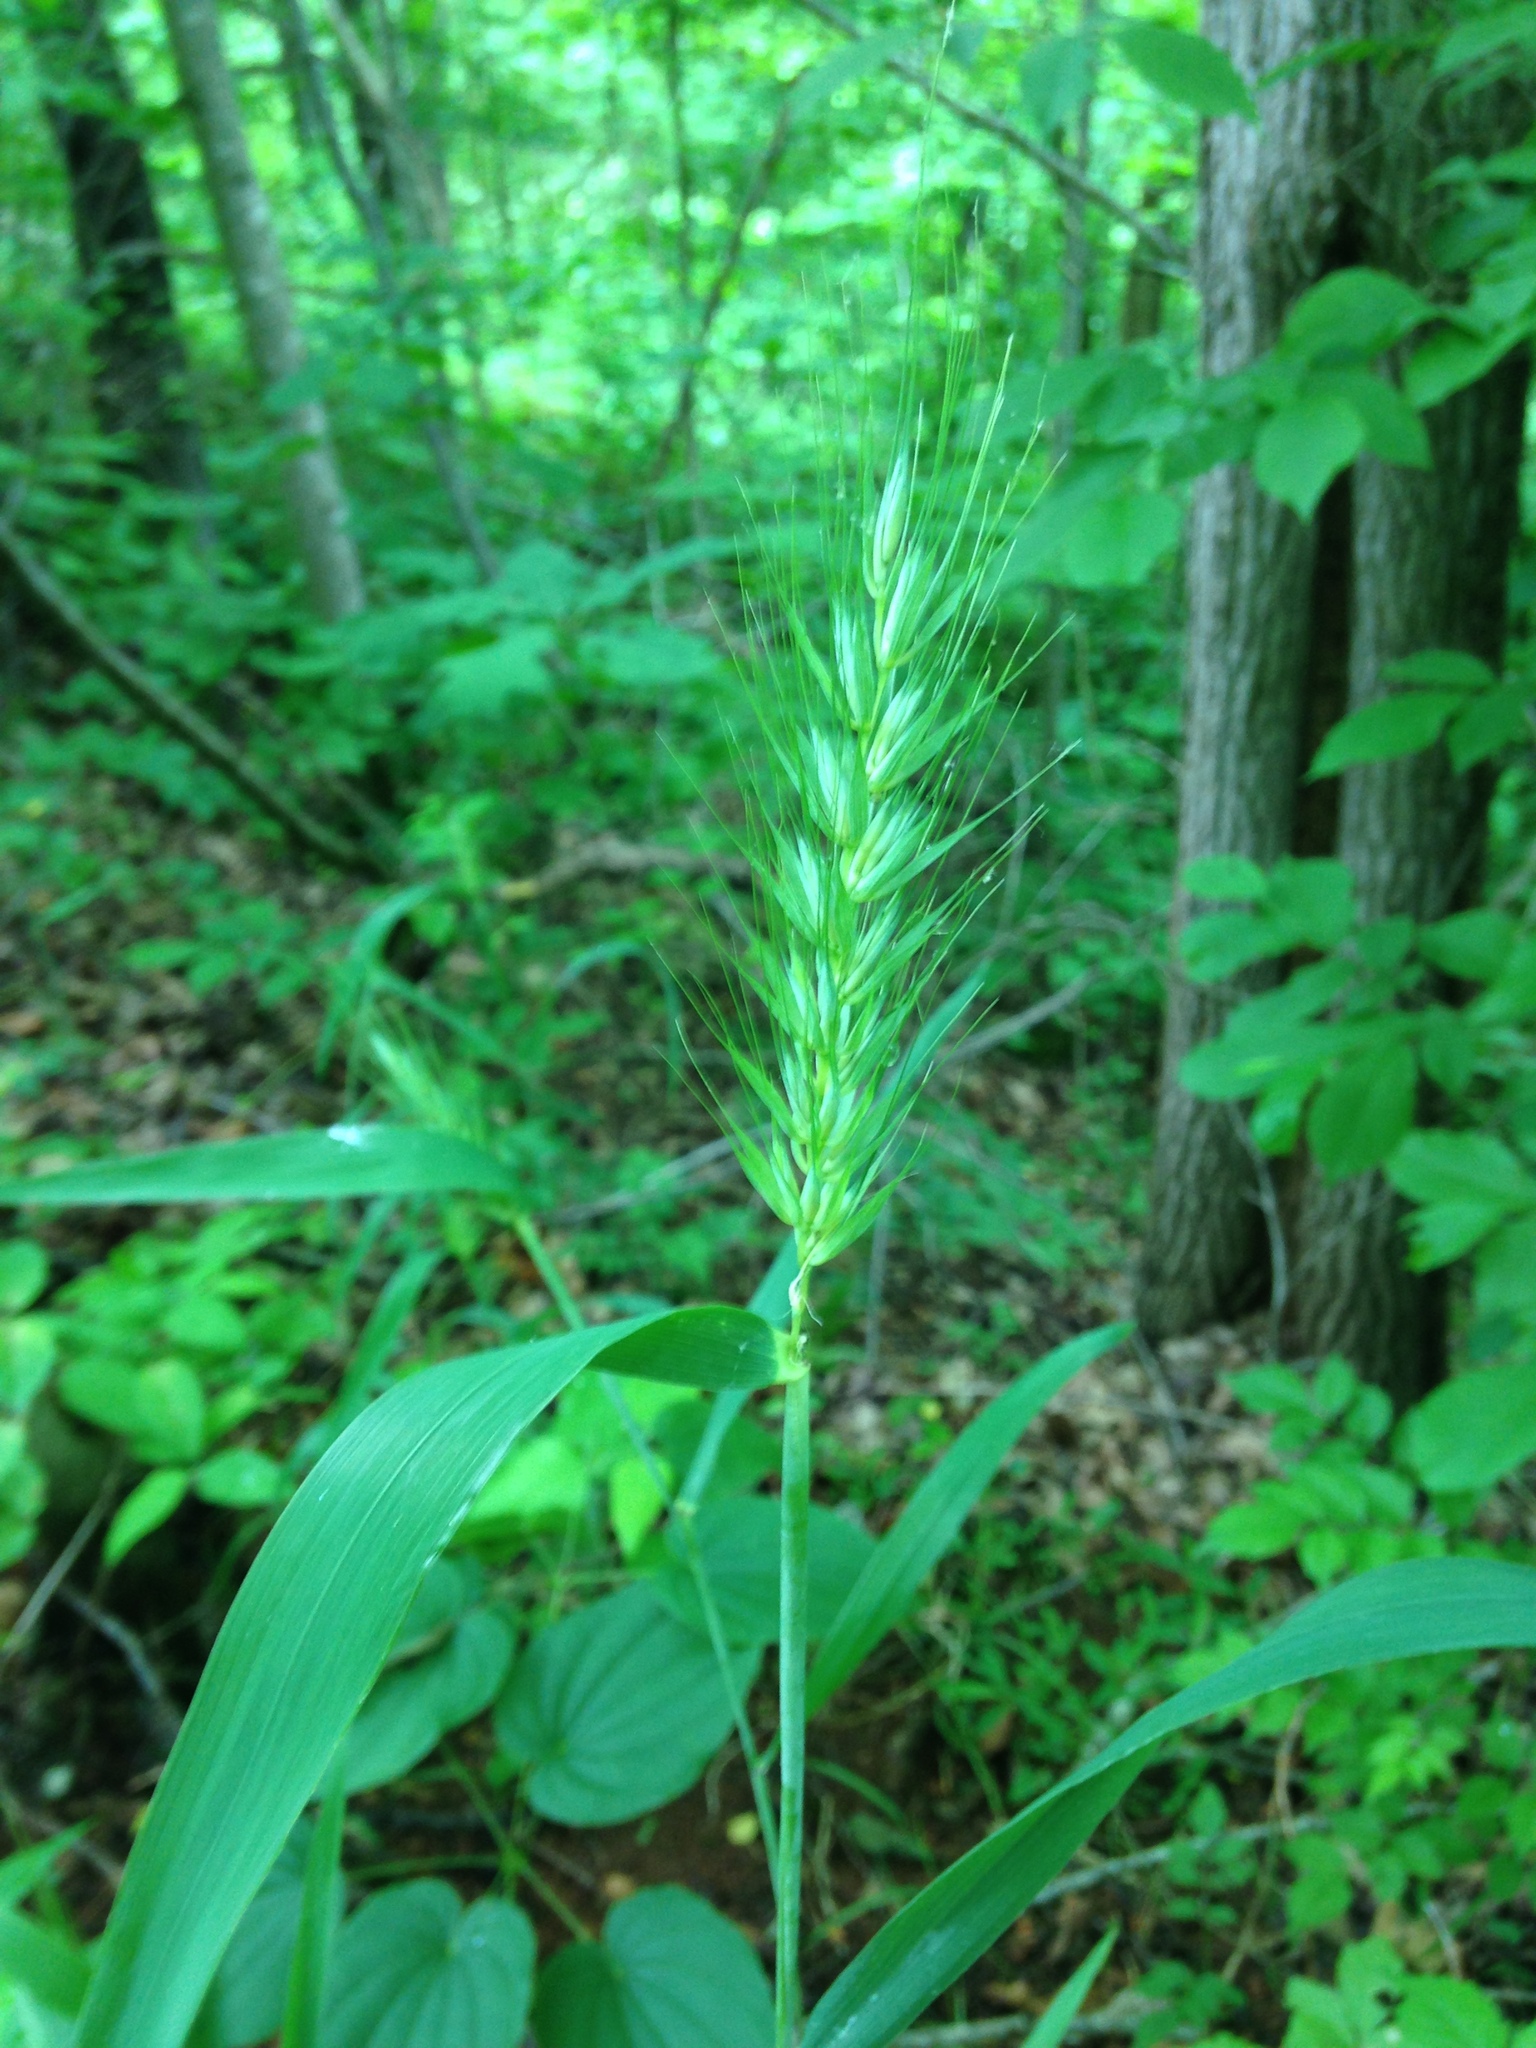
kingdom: Plantae
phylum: Tracheophyta
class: Liliopsida
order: Poales
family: Poaceae
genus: Elymus
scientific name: Elymus macgregorii
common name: Early wild rye
